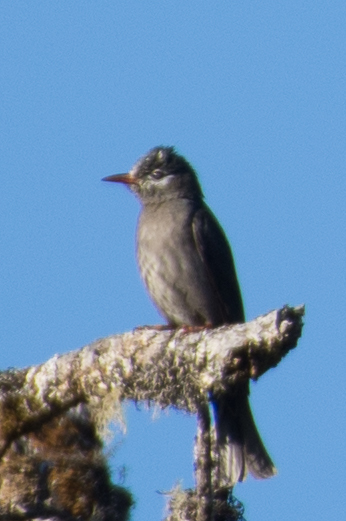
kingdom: Animalia
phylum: Chordata
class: Aves
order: Passeriformes
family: Pycnonotidae
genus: Hypsipetes
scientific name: Hypsipetes leucocephalus
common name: Black bulbul
